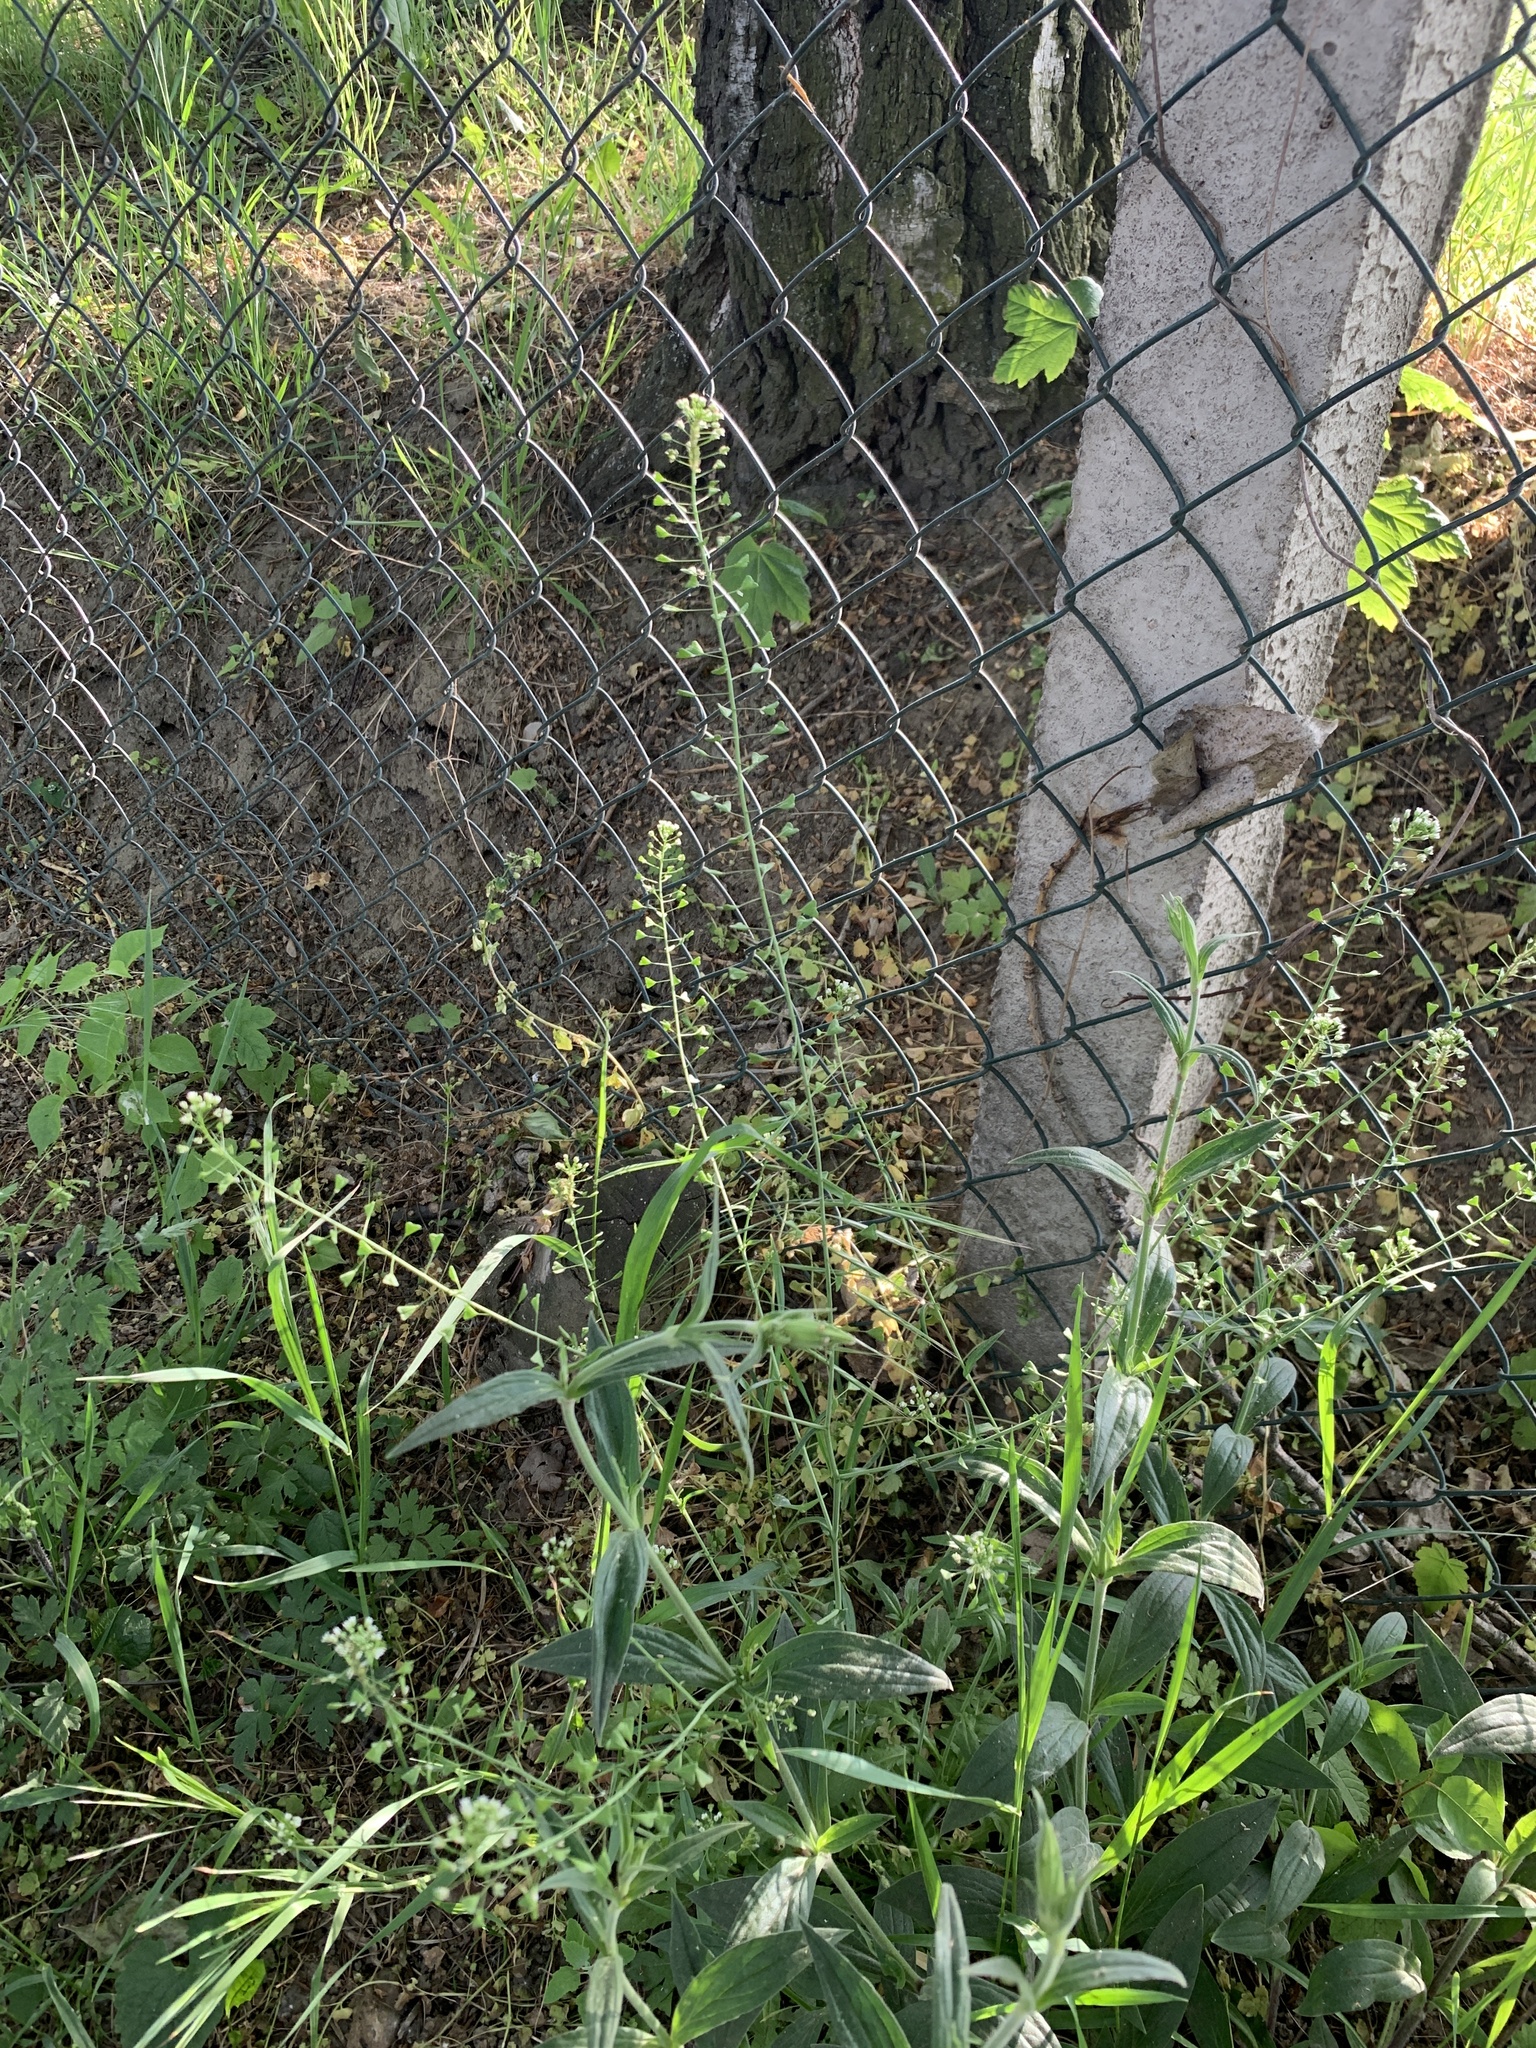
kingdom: Plantae
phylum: Tracheophyta
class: Magnoliopsida
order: Brassicales
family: Brassicaceae
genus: Capsella
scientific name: Capsella bursa-pastoris
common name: Shepherd's purse
